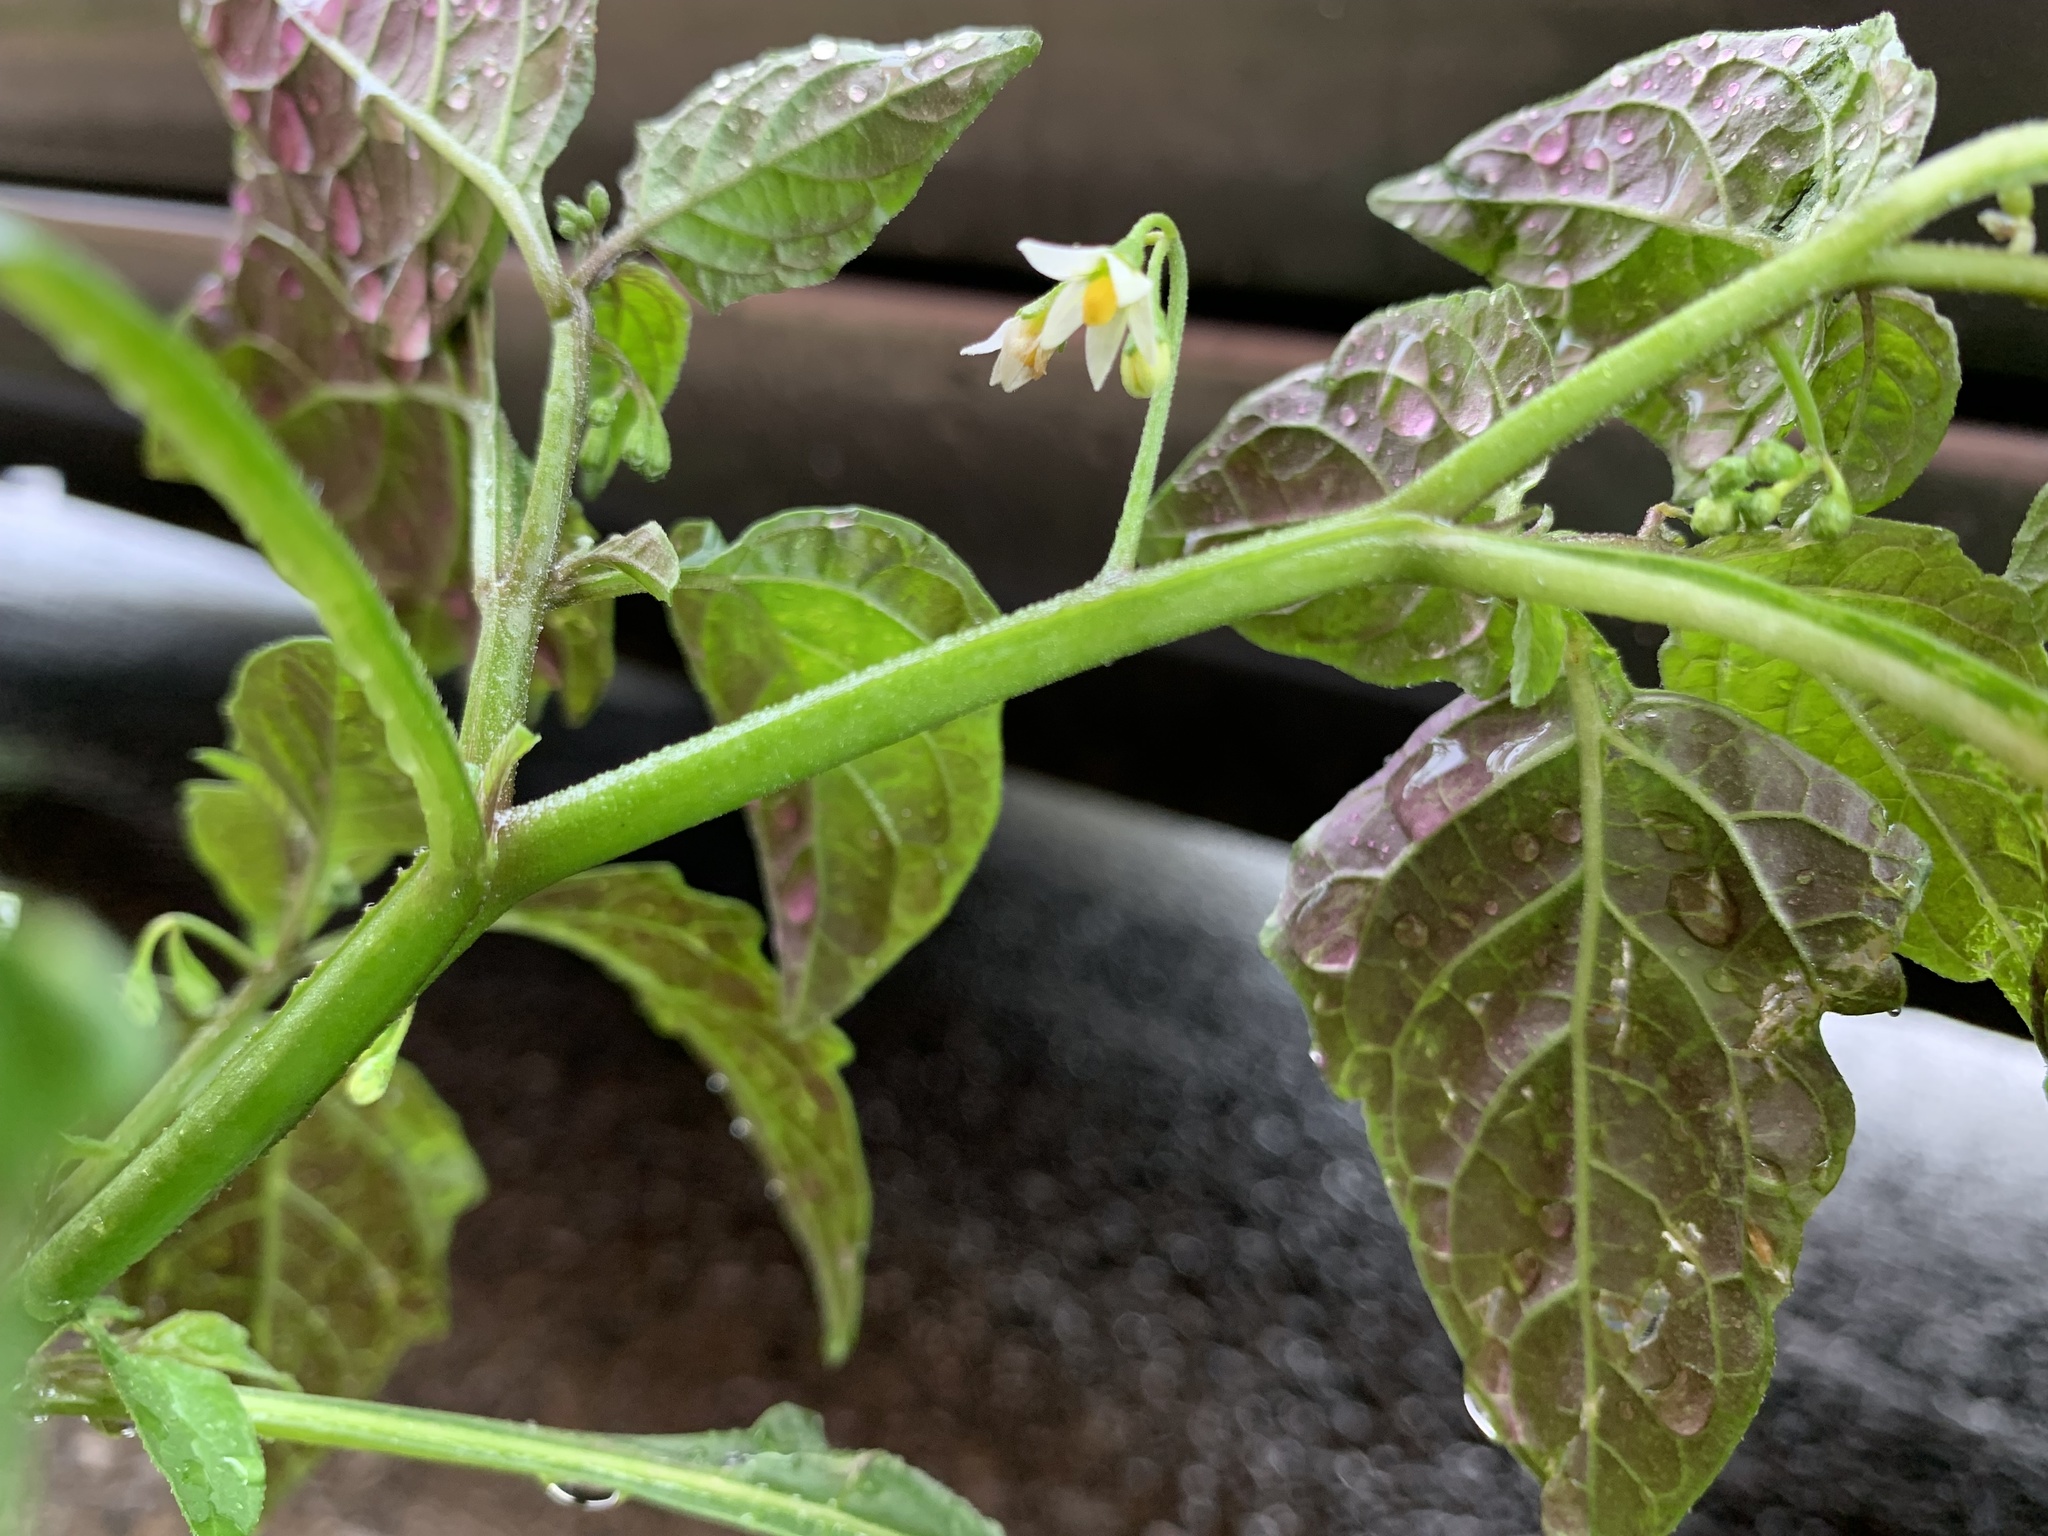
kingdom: Plantae
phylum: Tracheophyta
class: Magnoliopsida
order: Solanales
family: Solanaceae
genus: Solanum
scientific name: Solanum emulans
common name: Eastern black nightshade
